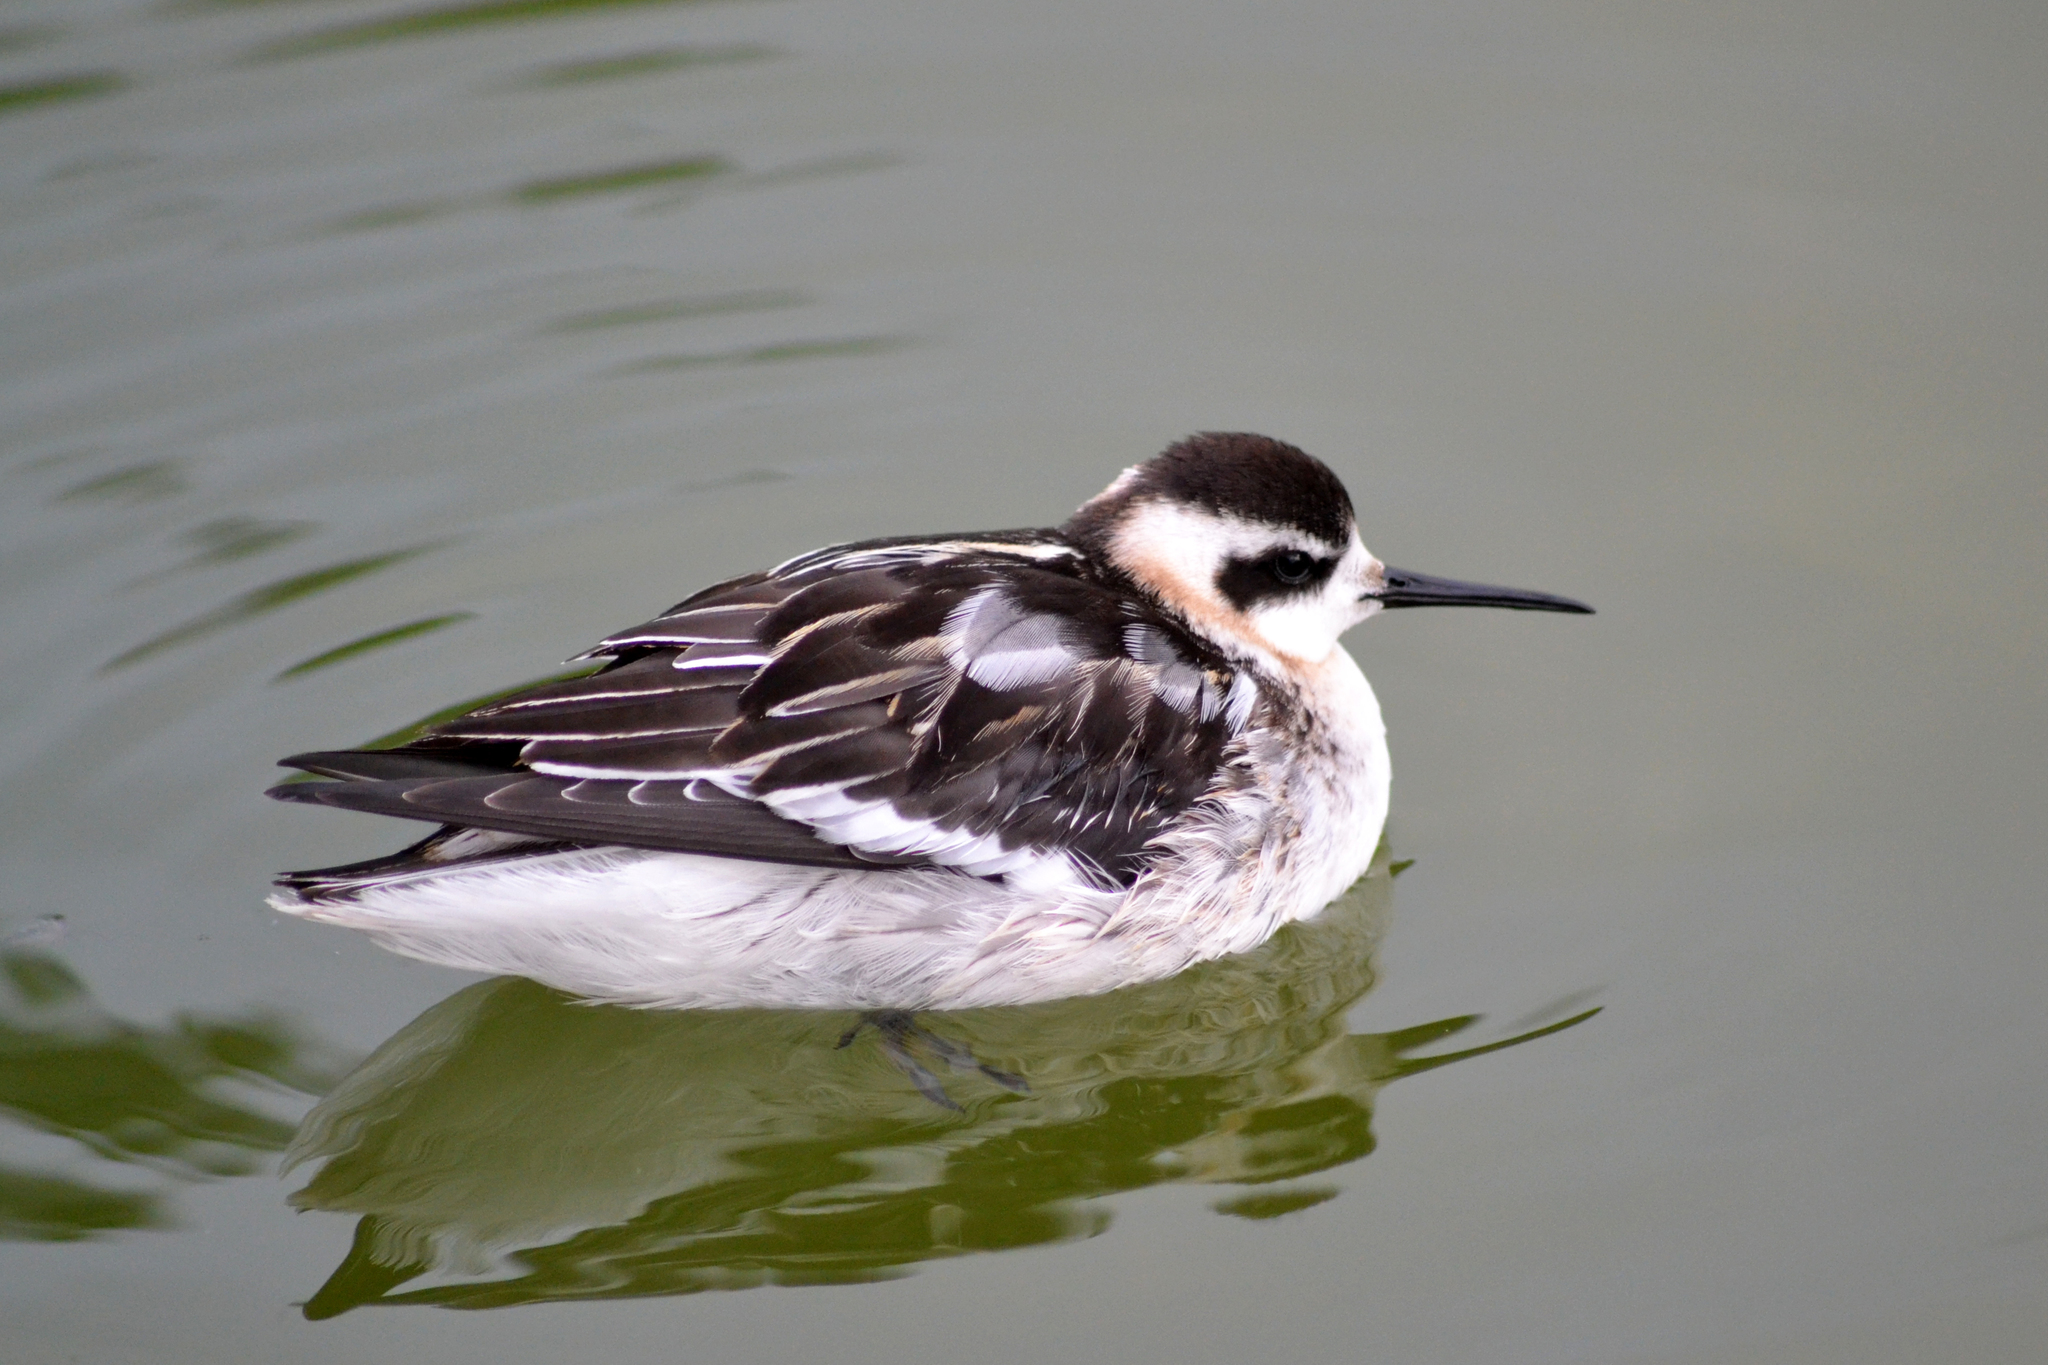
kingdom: Animalia
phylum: Chordata
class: Aves
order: Charadriiformes
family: Scolopacidae
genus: Phalaropus
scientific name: Phalaropus lobatus
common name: Red-necked phalarope
